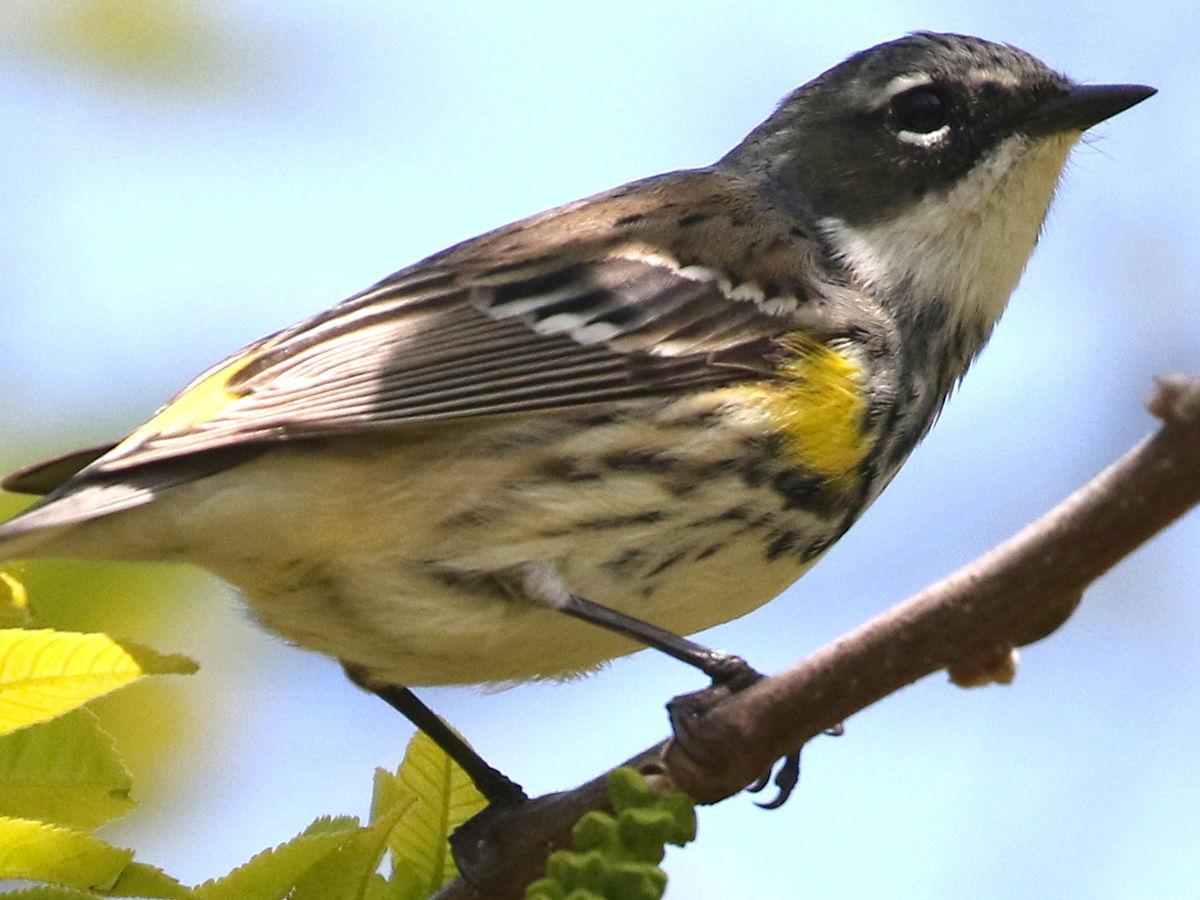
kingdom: Animalia
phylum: Chordata
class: Aves
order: Passeriformes
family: Parulidae
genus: Setophaga
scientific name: Setophaga coronata
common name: Myrtle warbler
